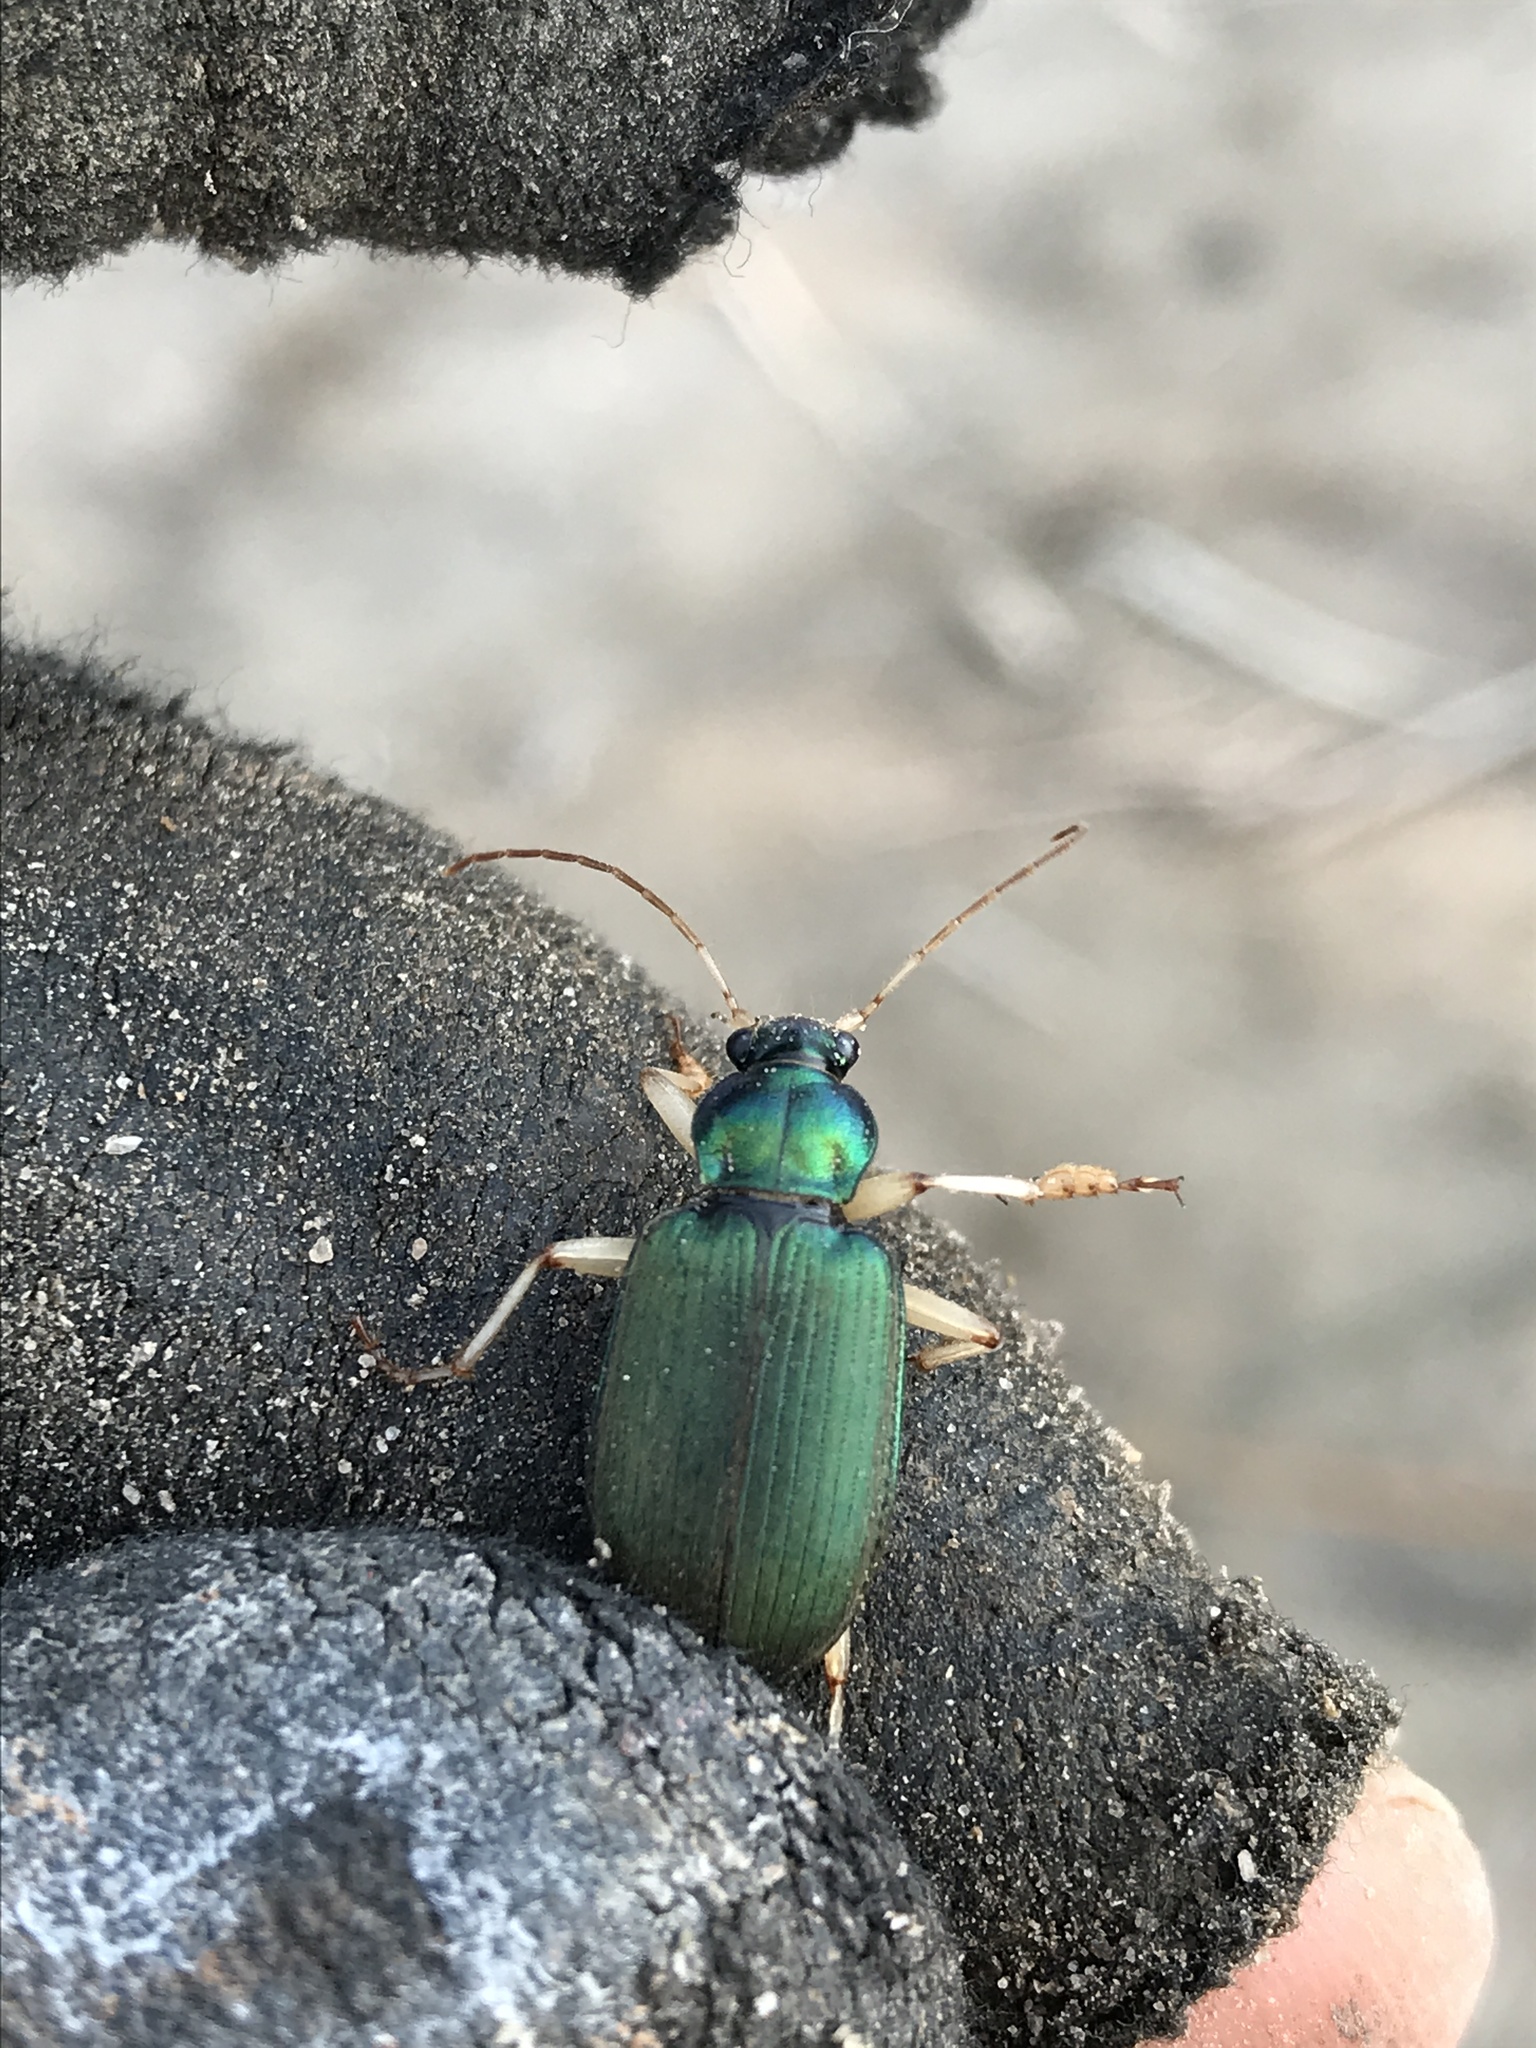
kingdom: Animalia
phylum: Arthropoda
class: Insecta
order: Coleoptera
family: Carabidae
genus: Chlaenius
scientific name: Chlaenius prasinus
